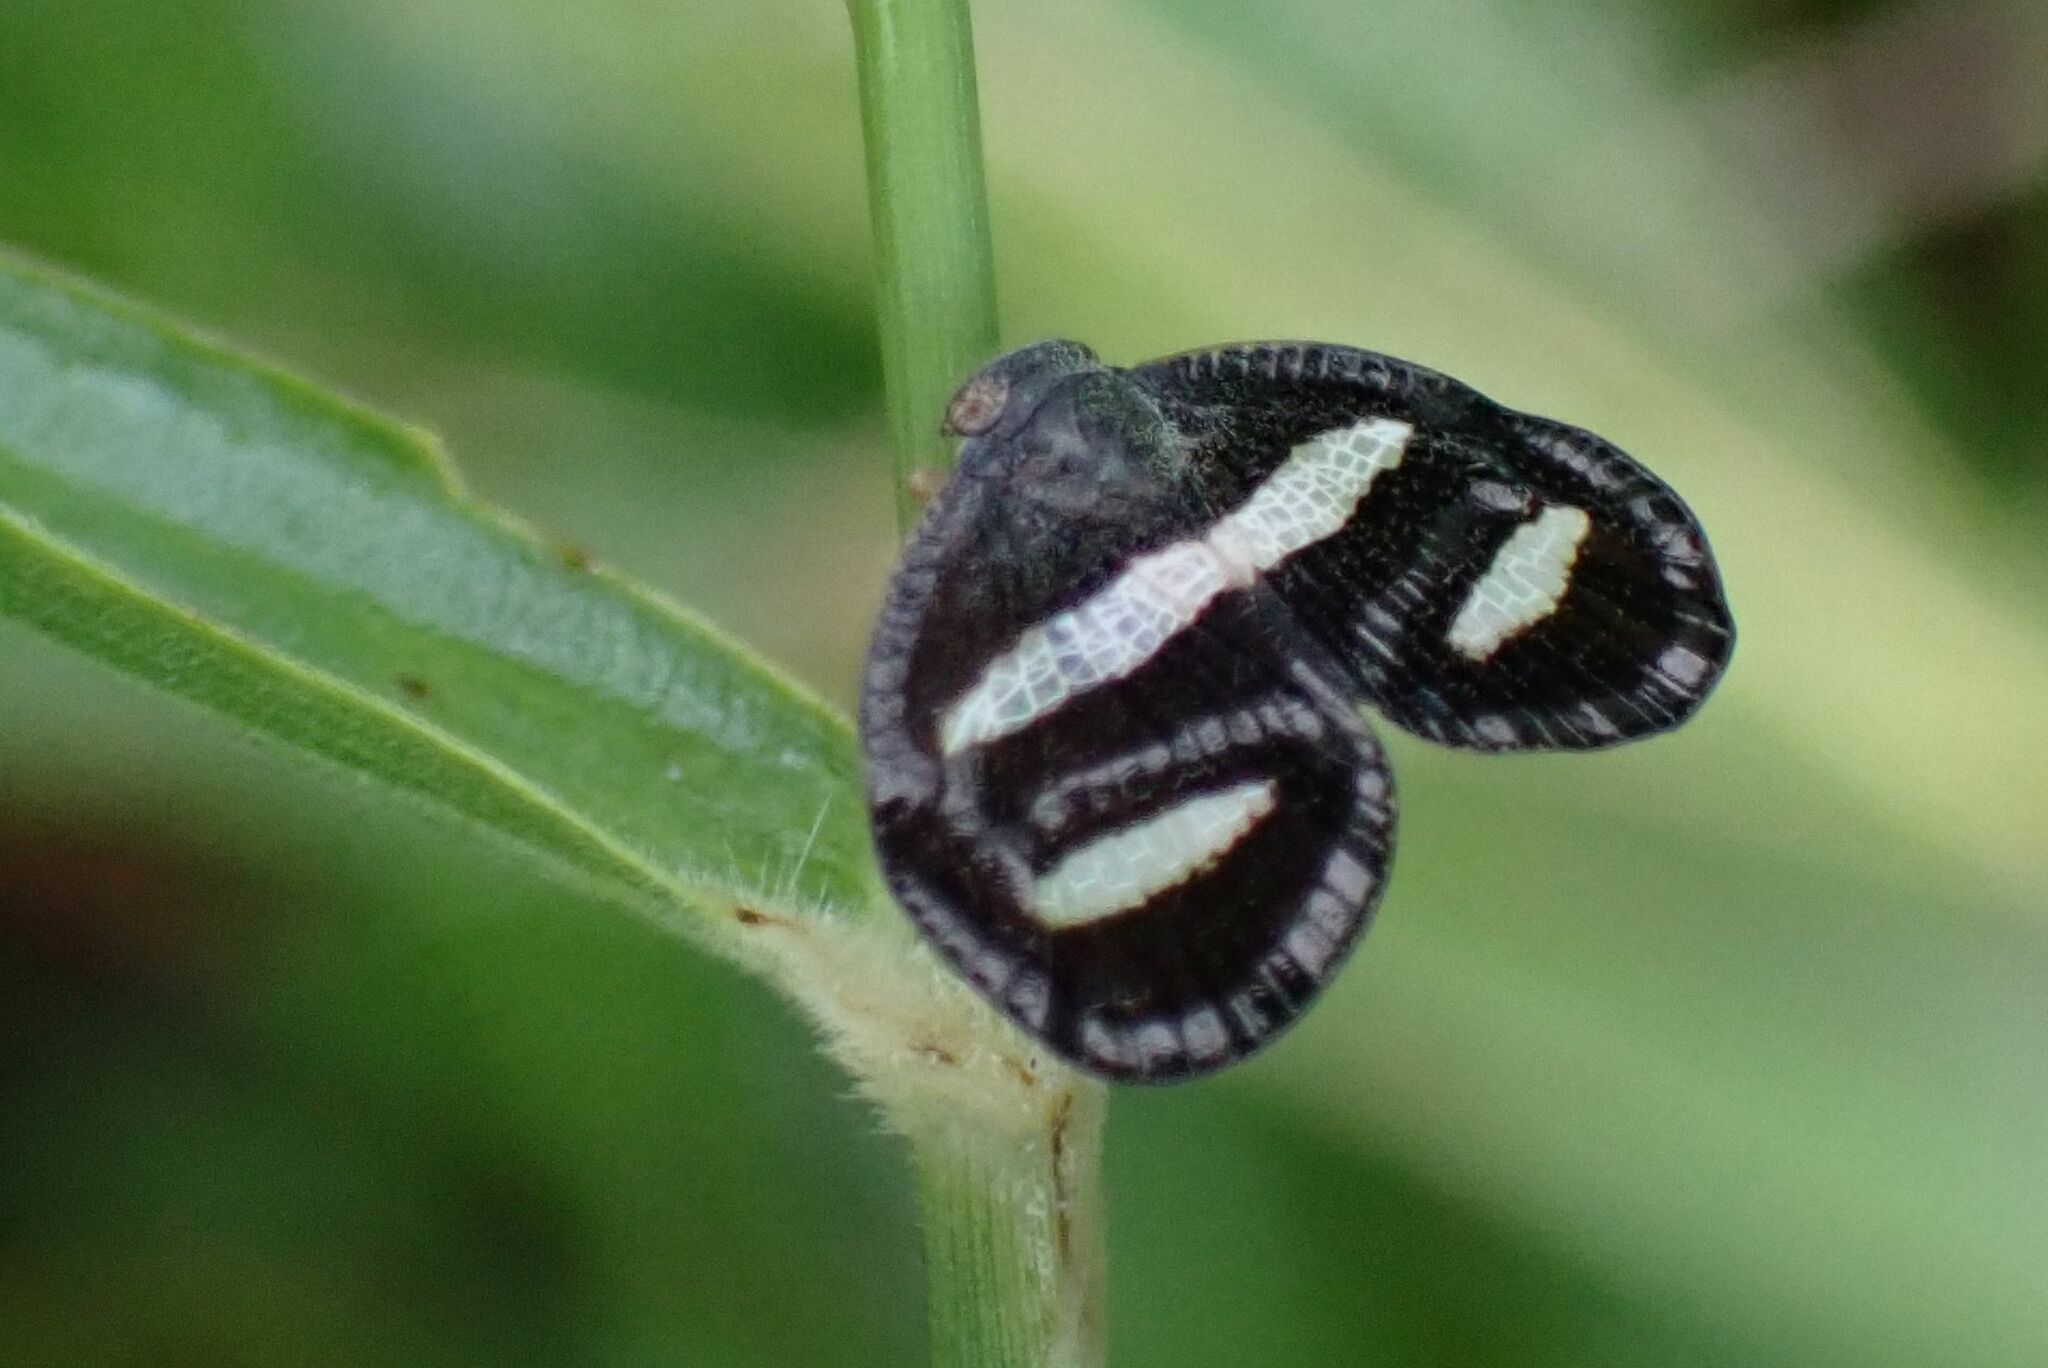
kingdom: Animalia
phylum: Arthropoda
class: Insecta
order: Hemiptera
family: Ricaniidae
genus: Mulvia
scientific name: Mulvia albizona
